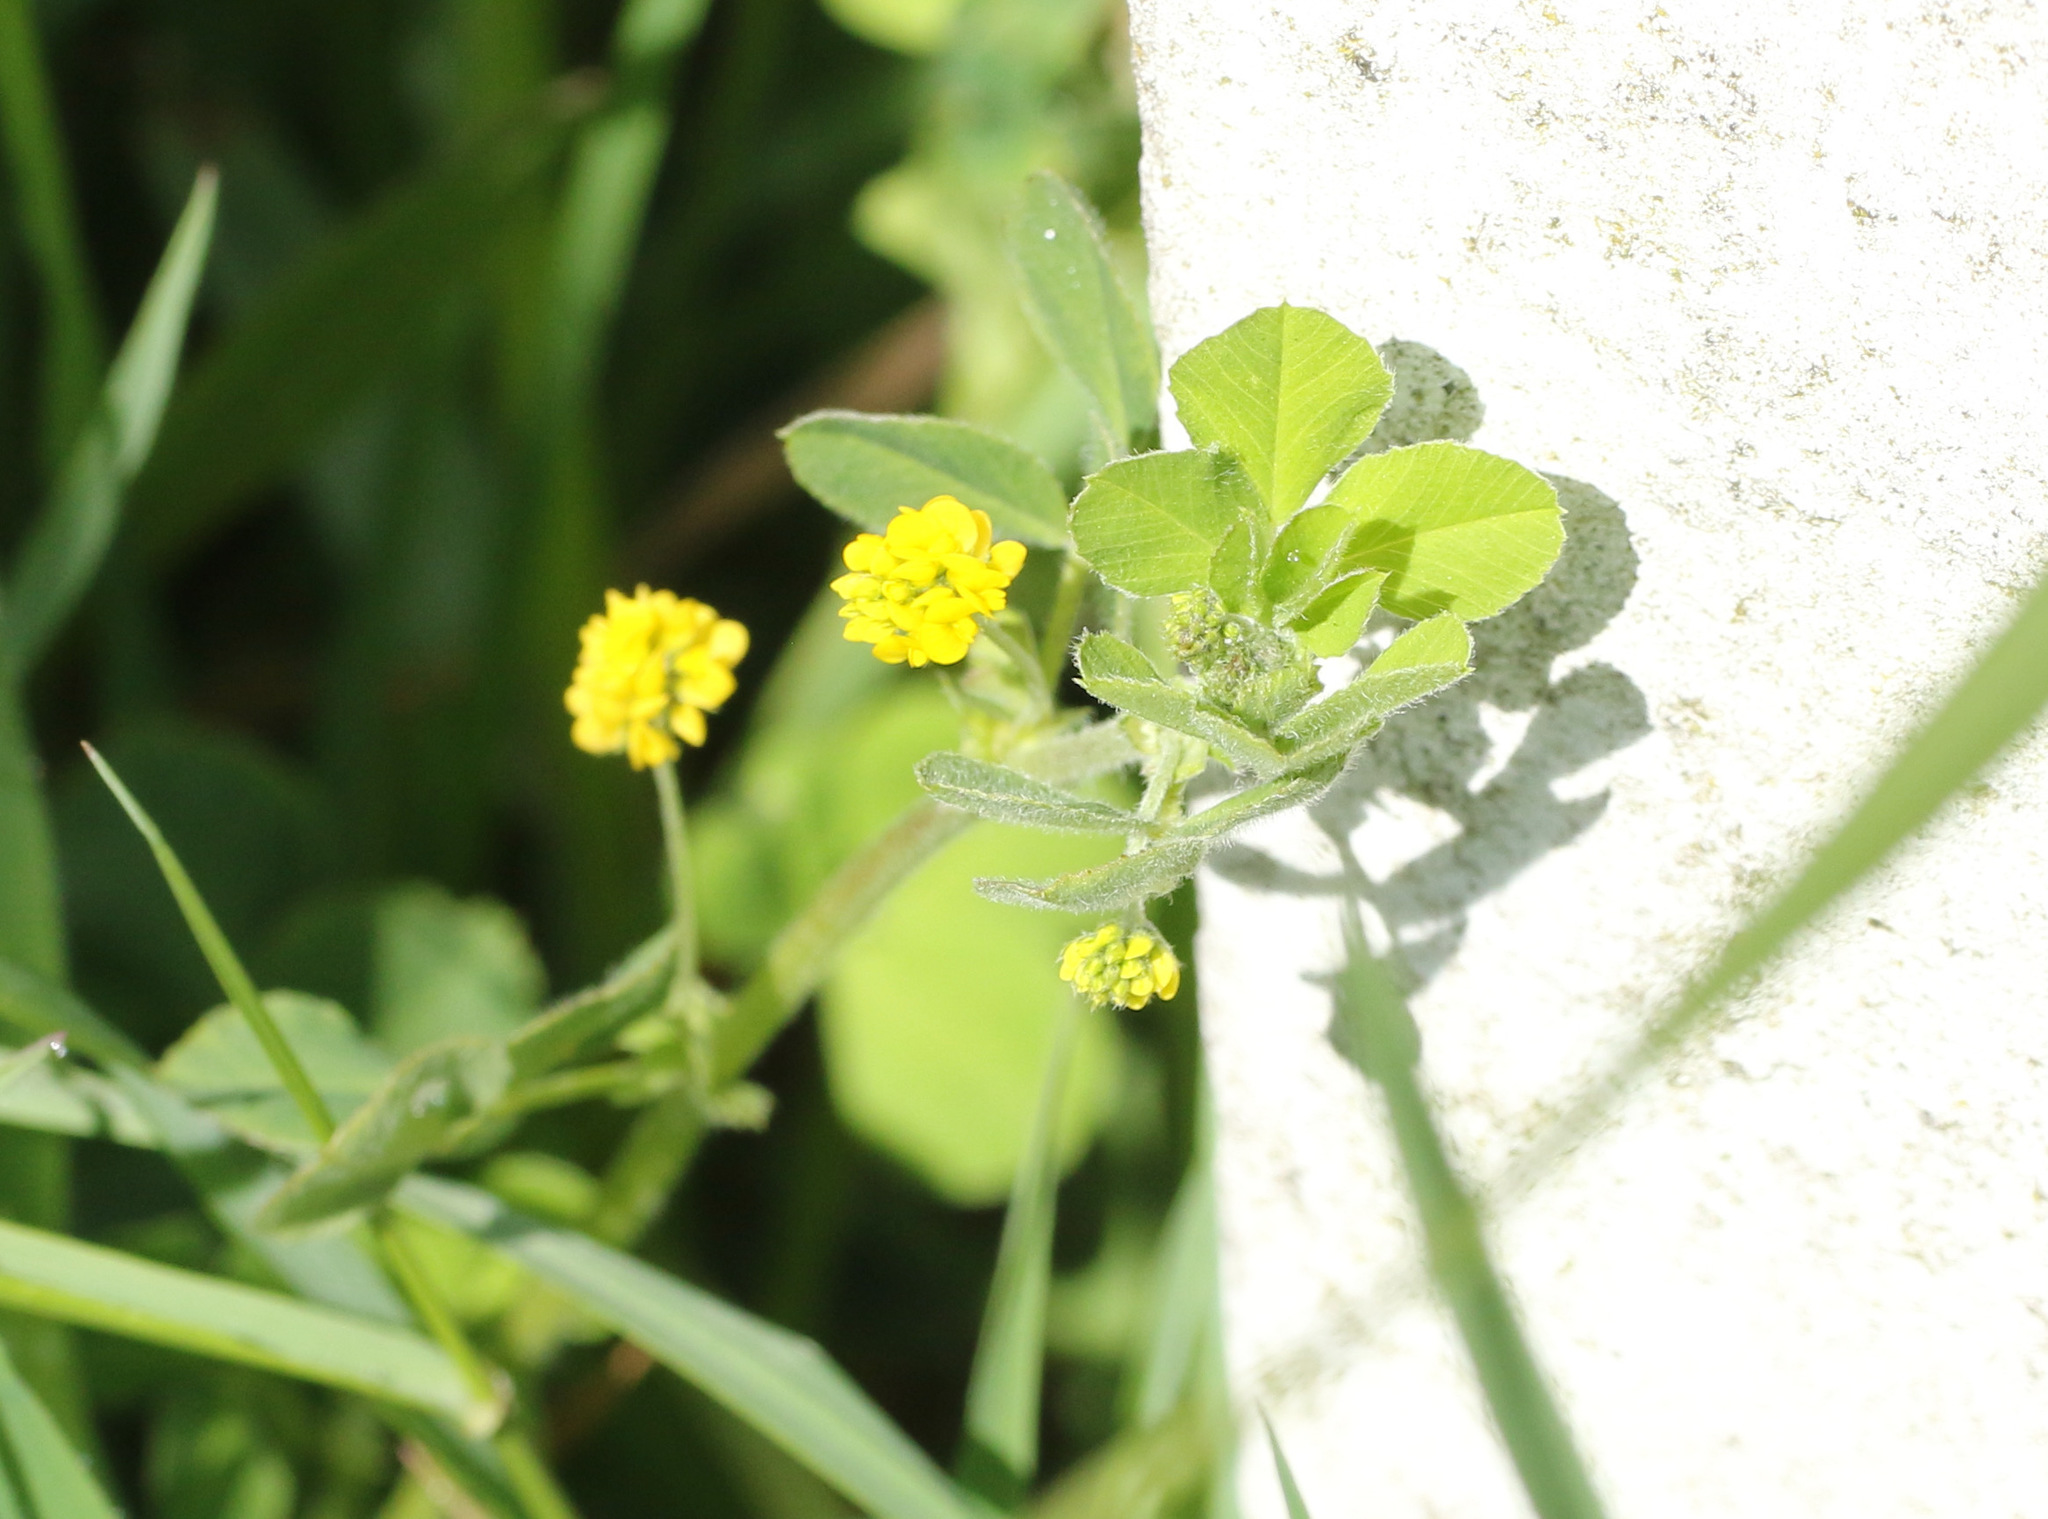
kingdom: Plantae
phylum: Tracheophyta
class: Magnoliopsida
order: Fabales
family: Fabaceae
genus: Medicago
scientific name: Medicago lupulina
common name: Black medick
